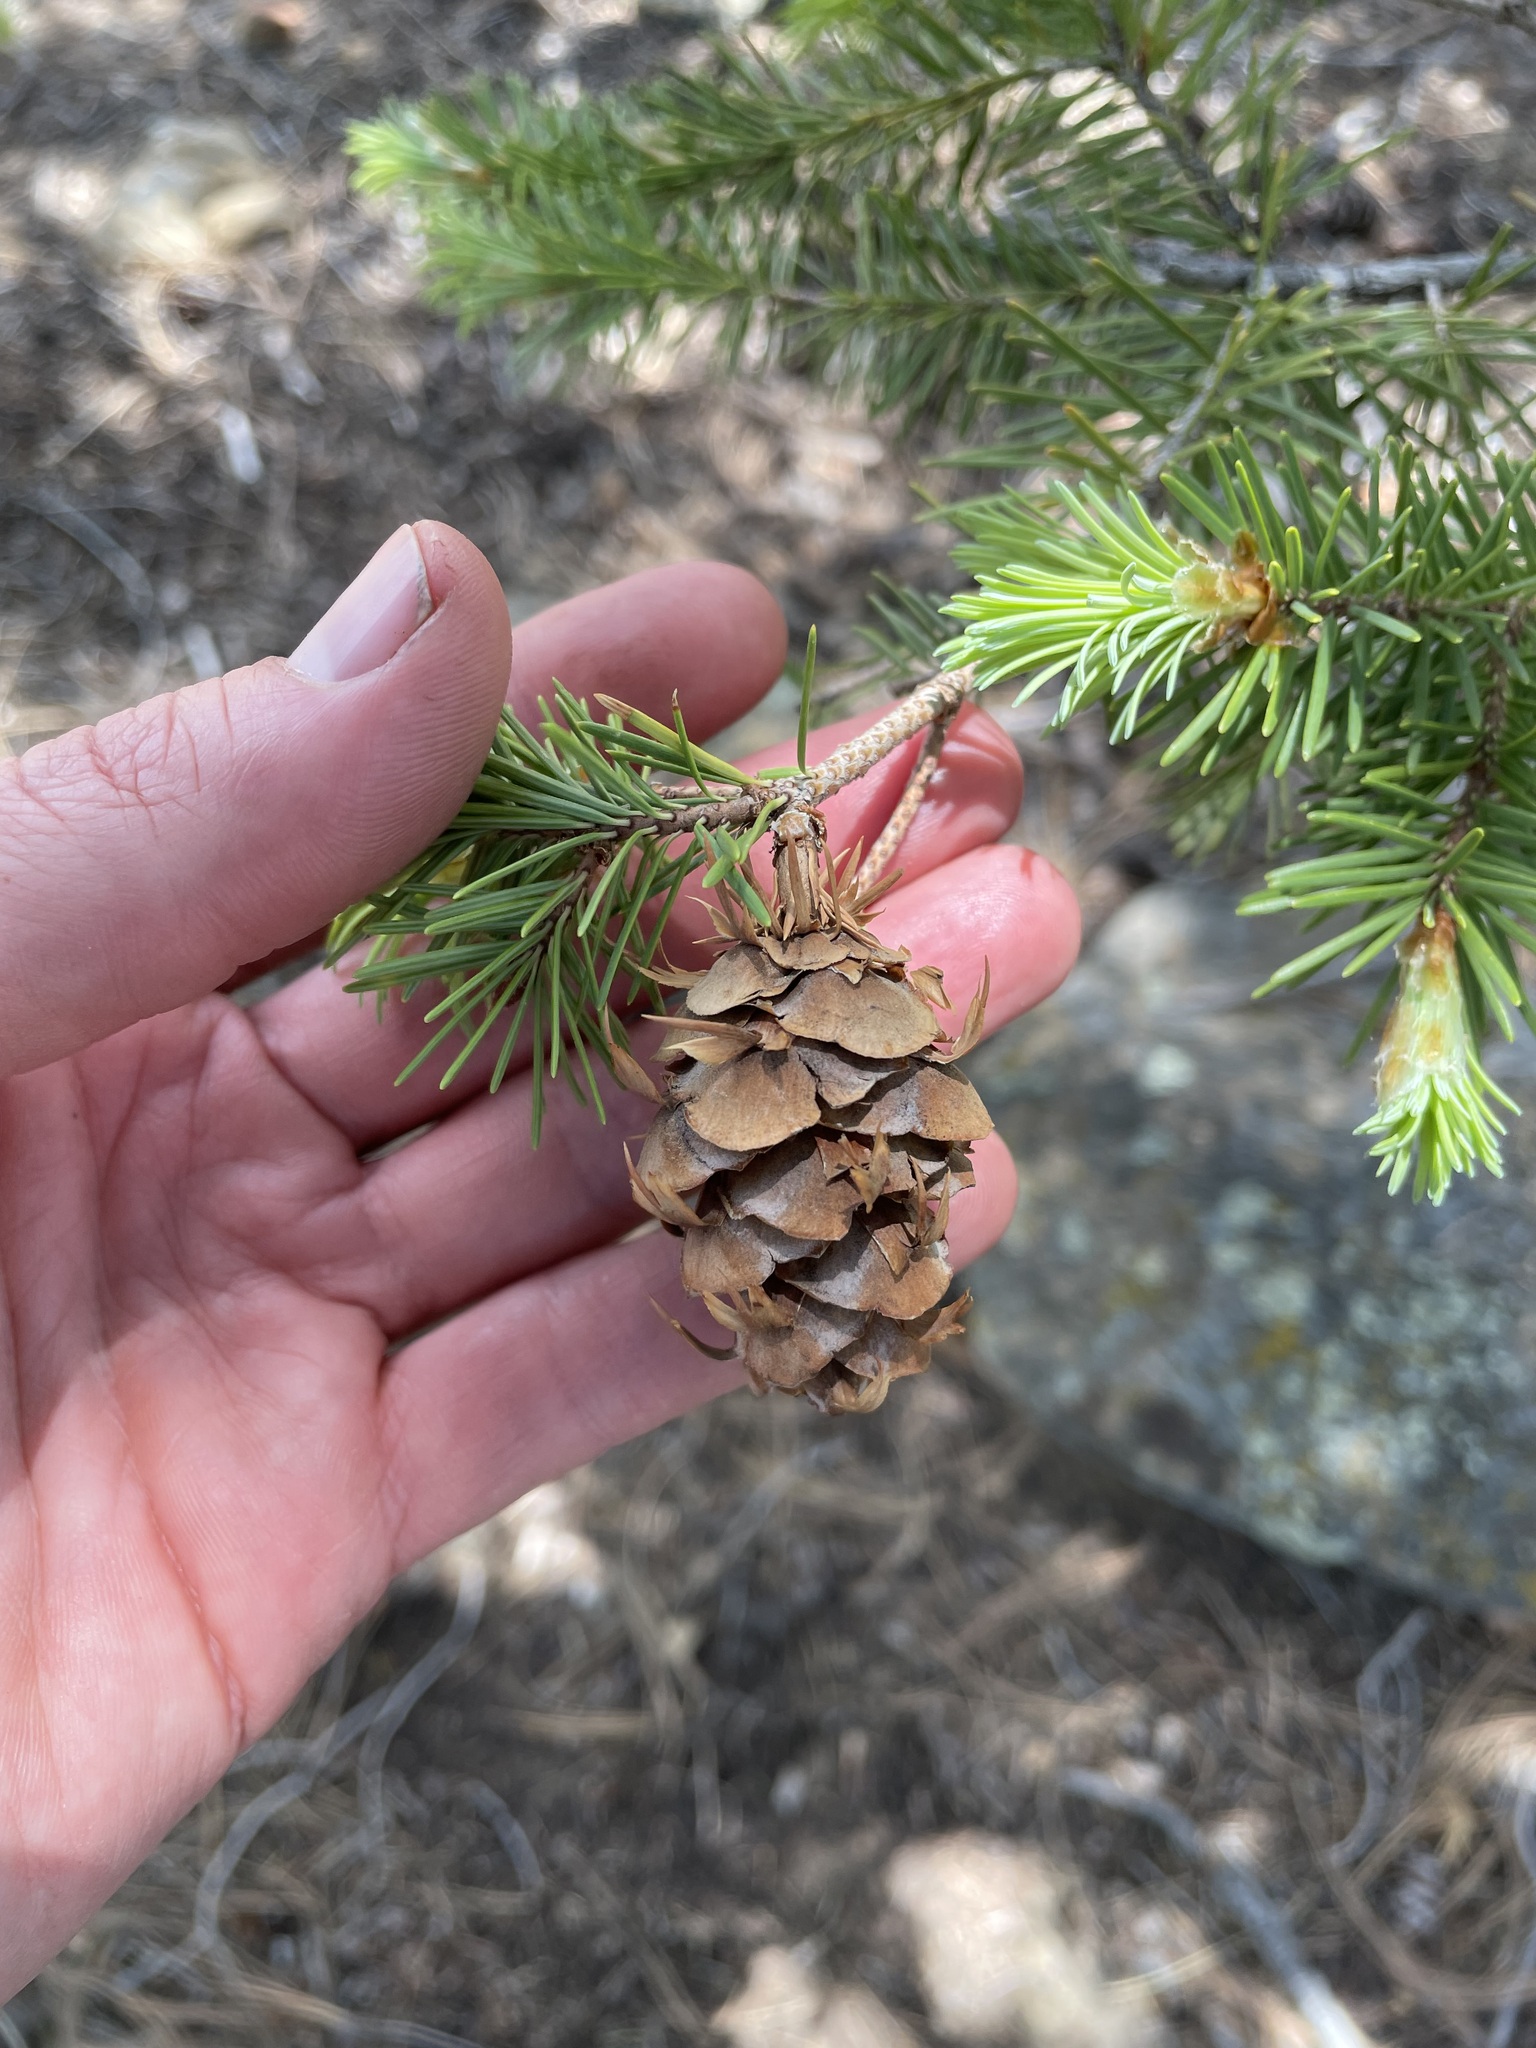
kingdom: Plantae
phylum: Tracheophyta
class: Pinopsida
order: Pinales
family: Pinaceae
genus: Pseudotsuga
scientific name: Pseudotsuga menziesii
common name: Douglas fir
